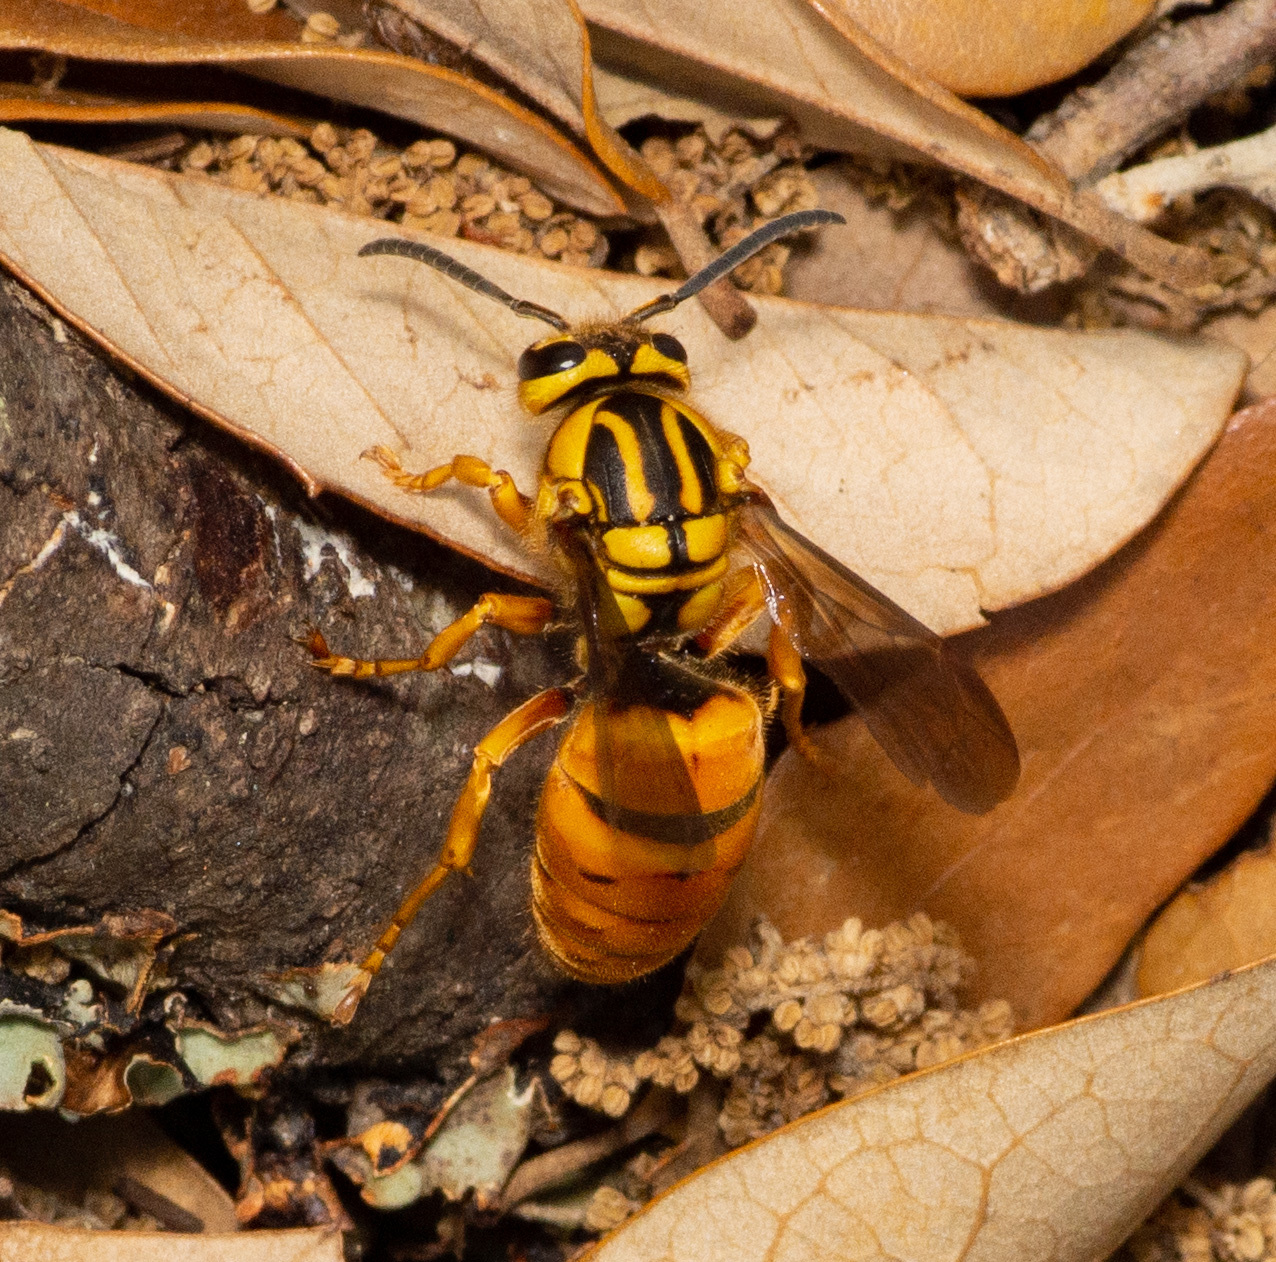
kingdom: Animalia
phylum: Arthropoda
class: Insecta
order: Hymenoptera
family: Vespidae
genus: Vespula
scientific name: Vespula squamosa
